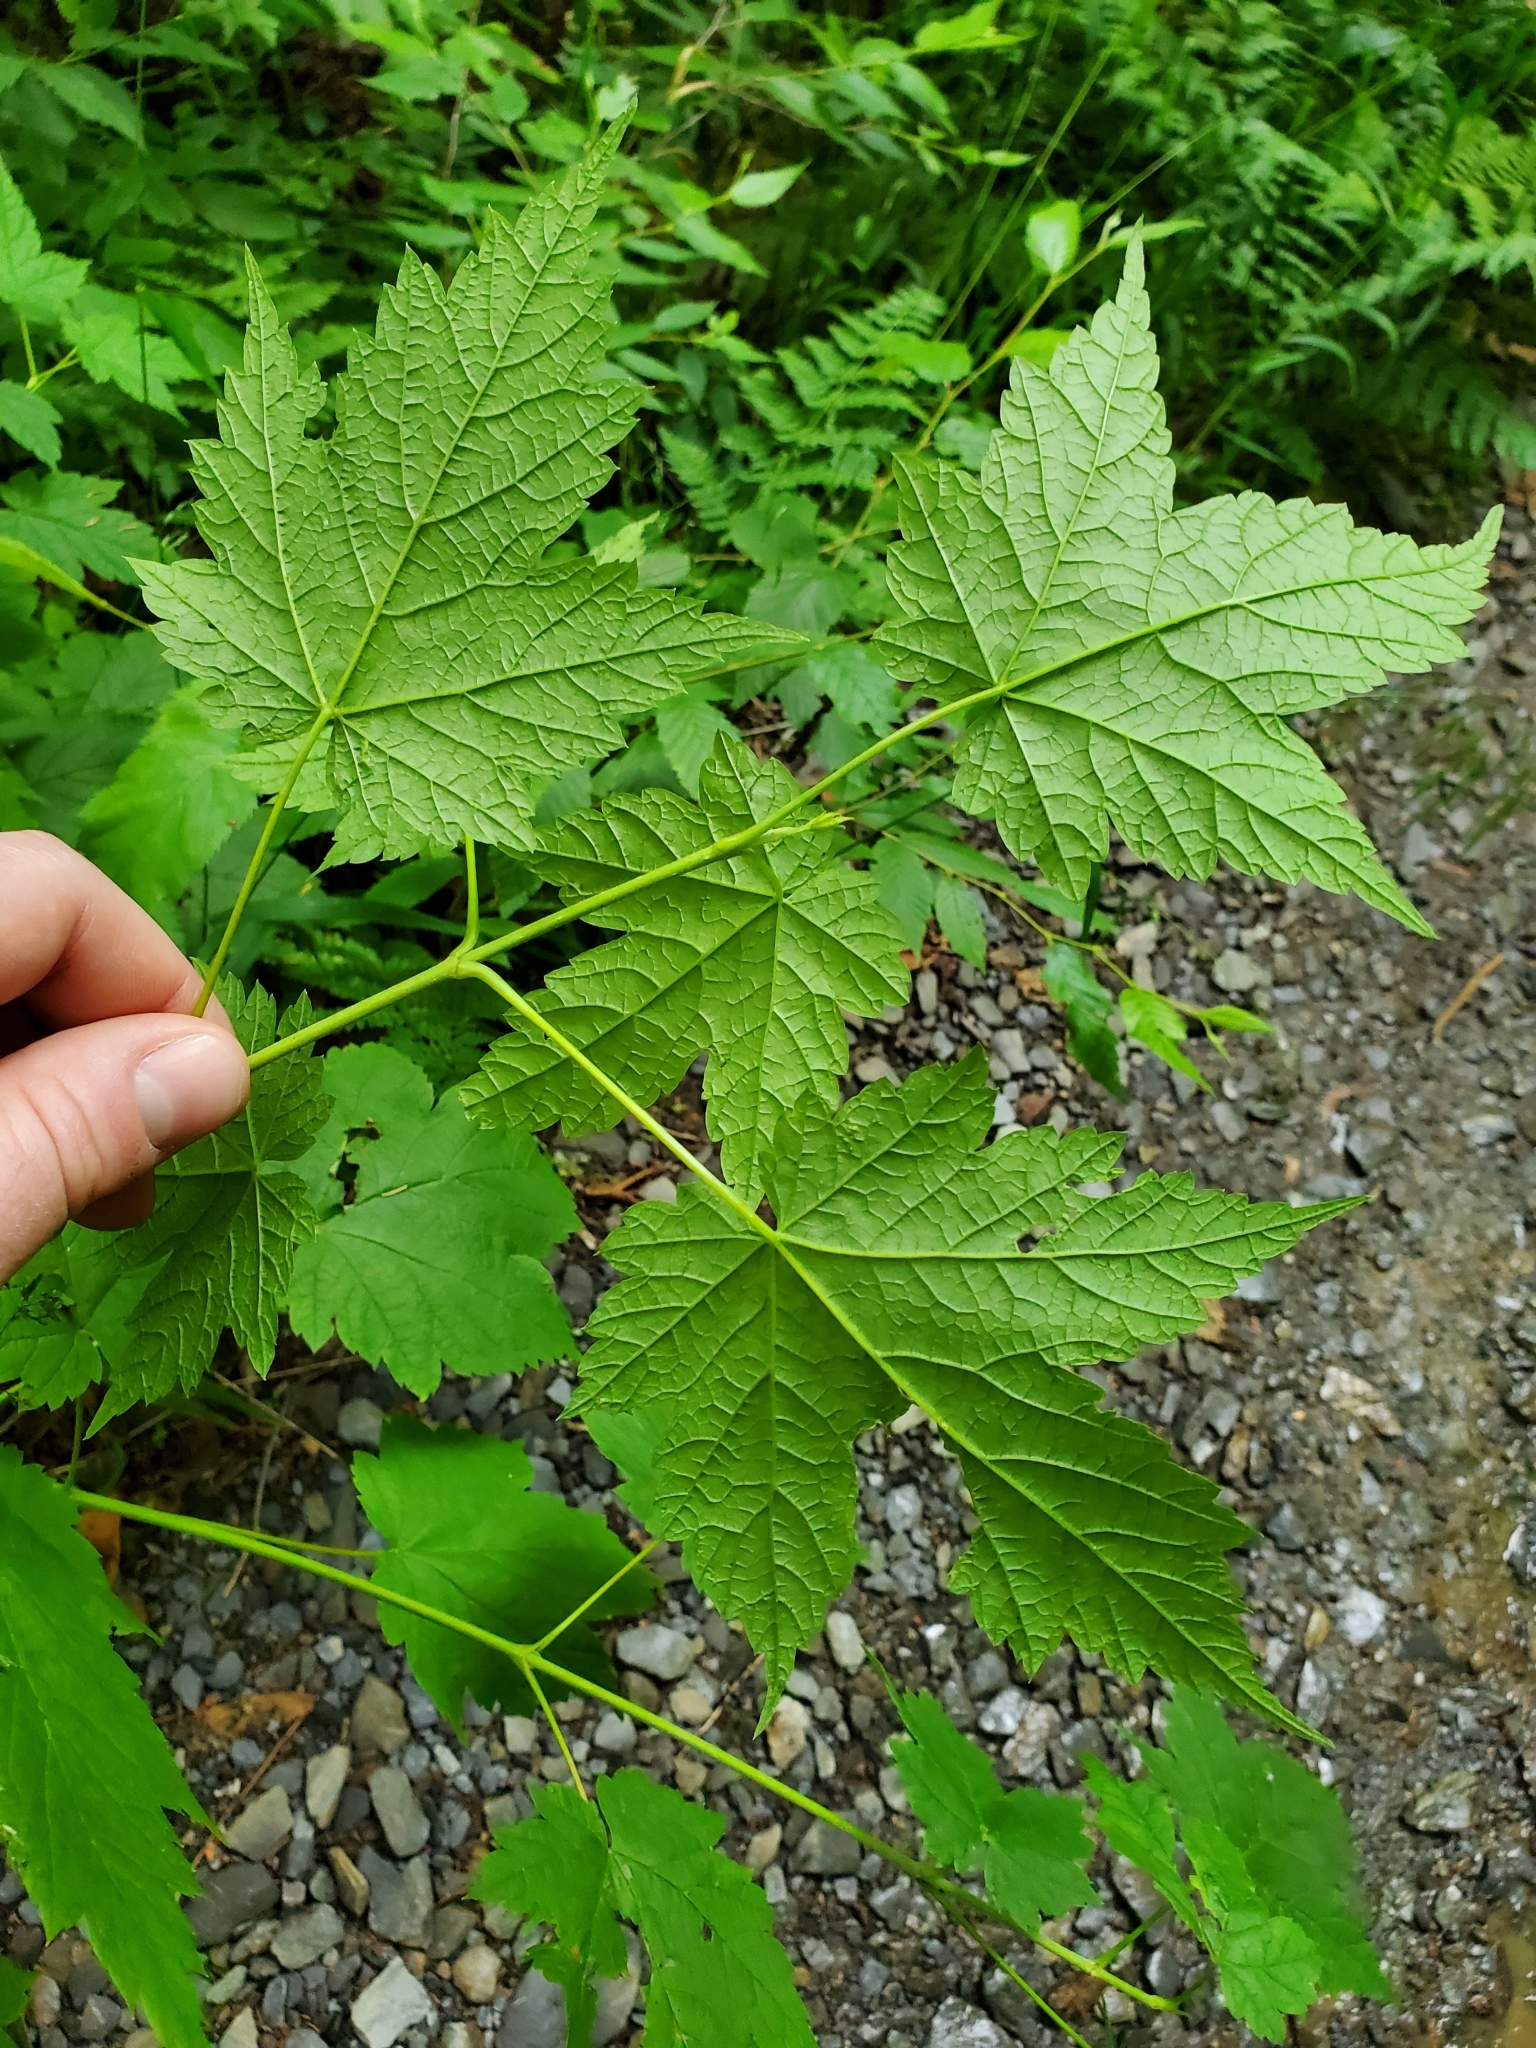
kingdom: Plantae
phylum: Tracheophyta
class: Magnoliopsida
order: Sapindales
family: Sapindaceae
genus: Acer
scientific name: Acer spicatum
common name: Mountain maple
